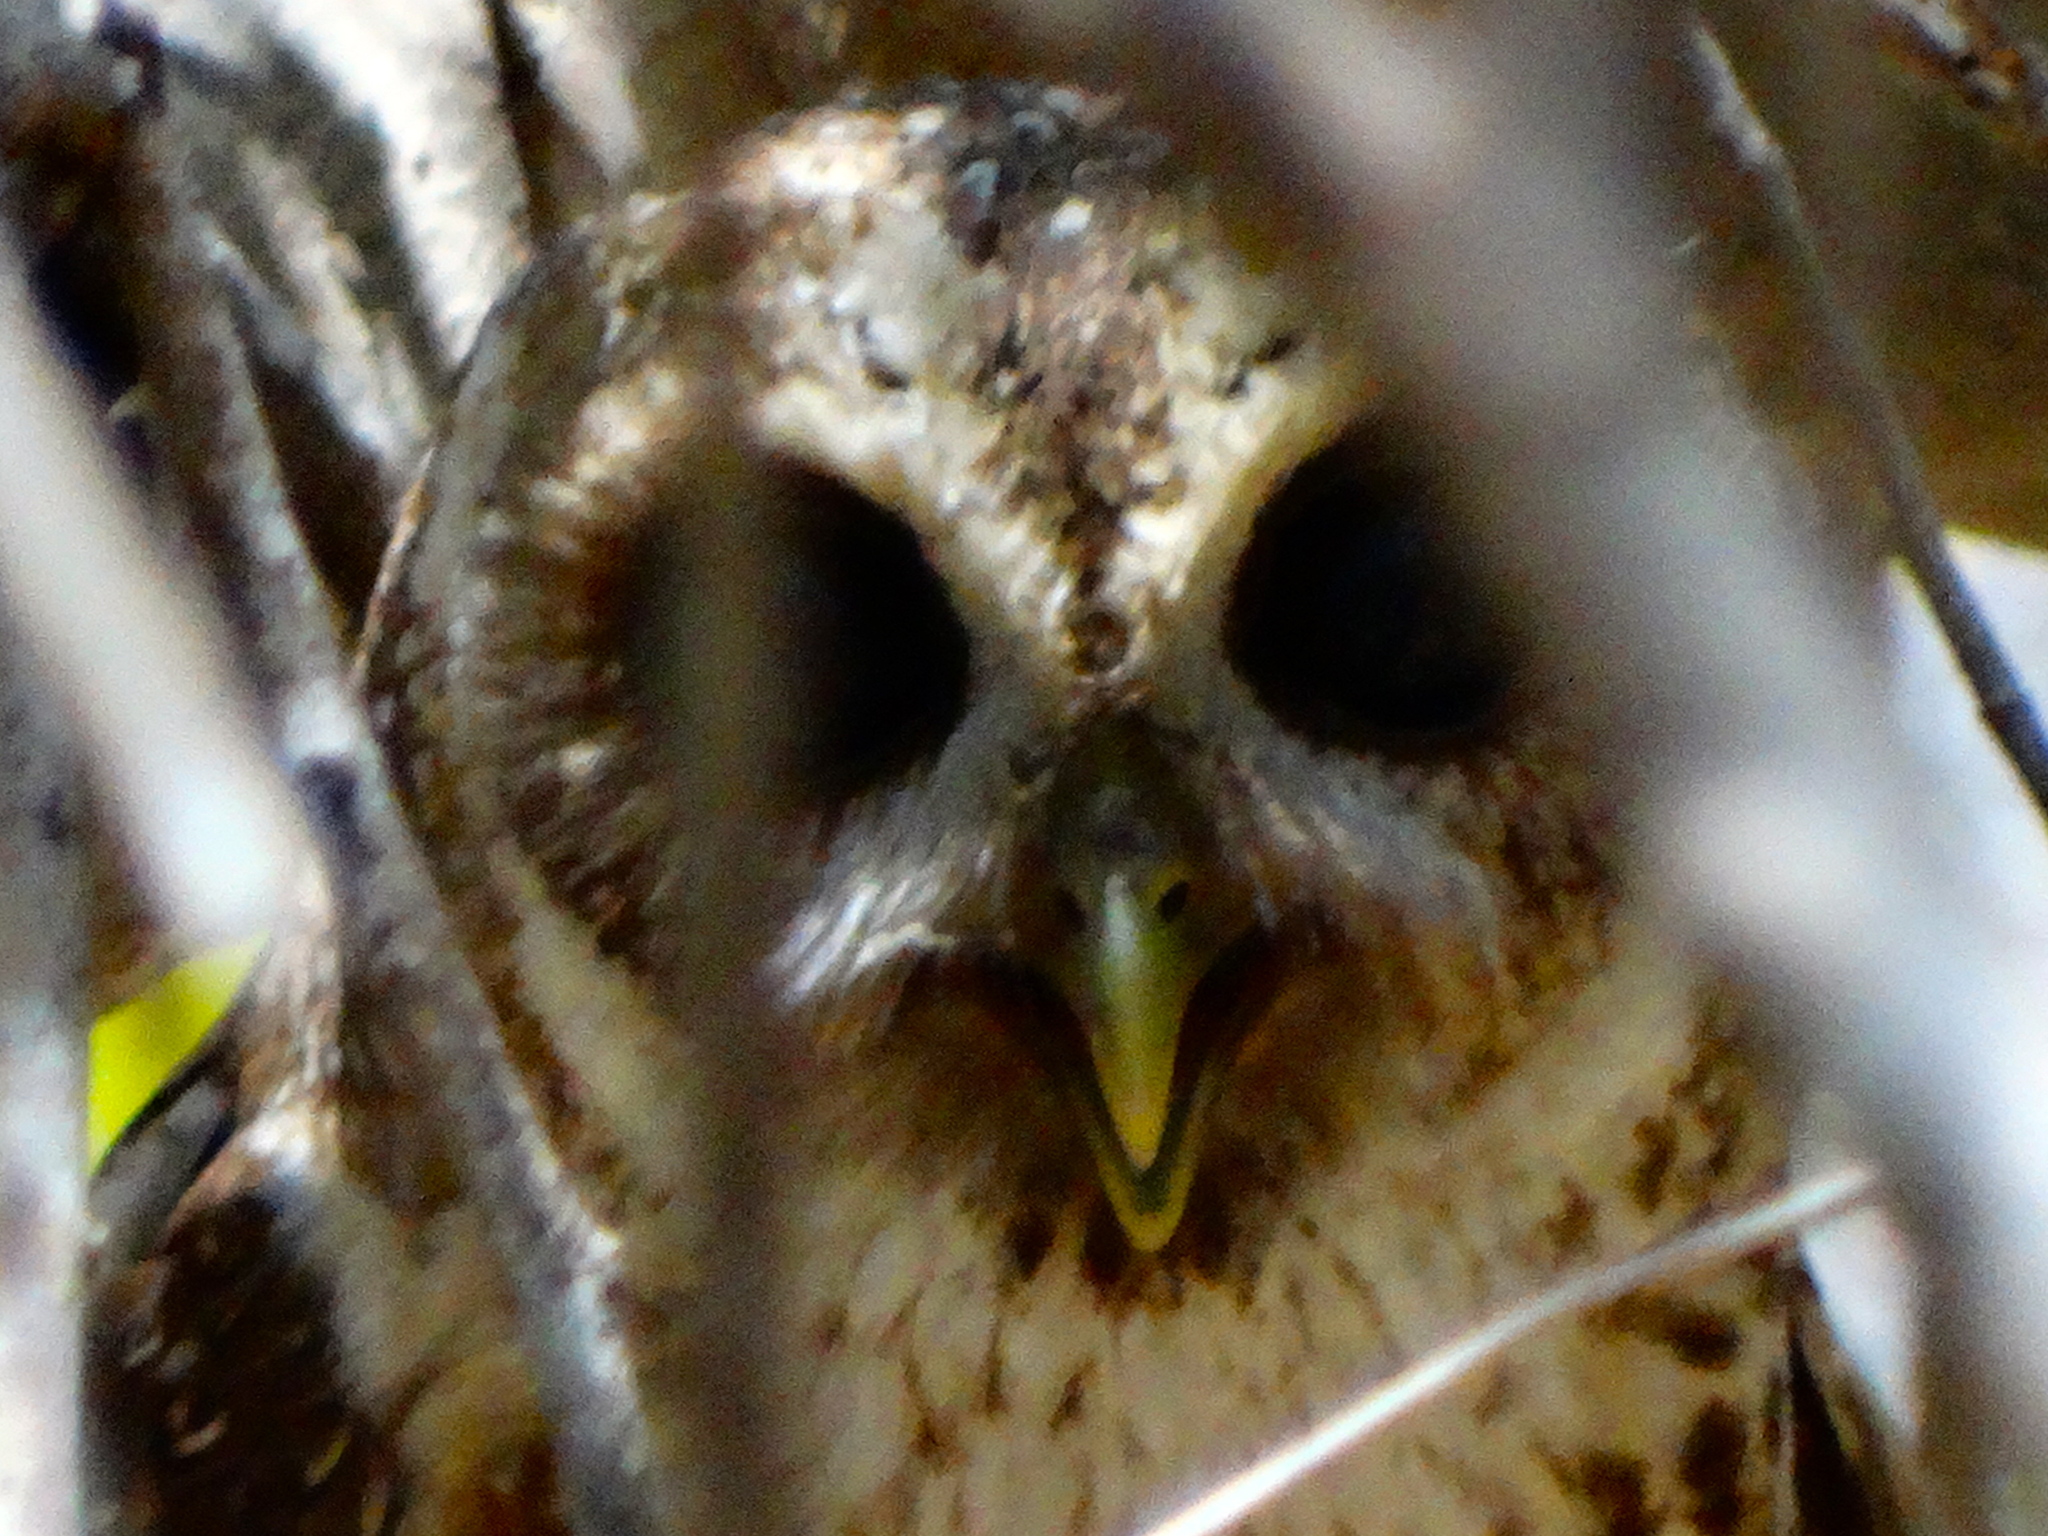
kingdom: Animalia
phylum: Chordata
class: Aves
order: Strigiformes
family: Strigidae
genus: Strix
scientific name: Strix virgata
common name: Mottled owl
